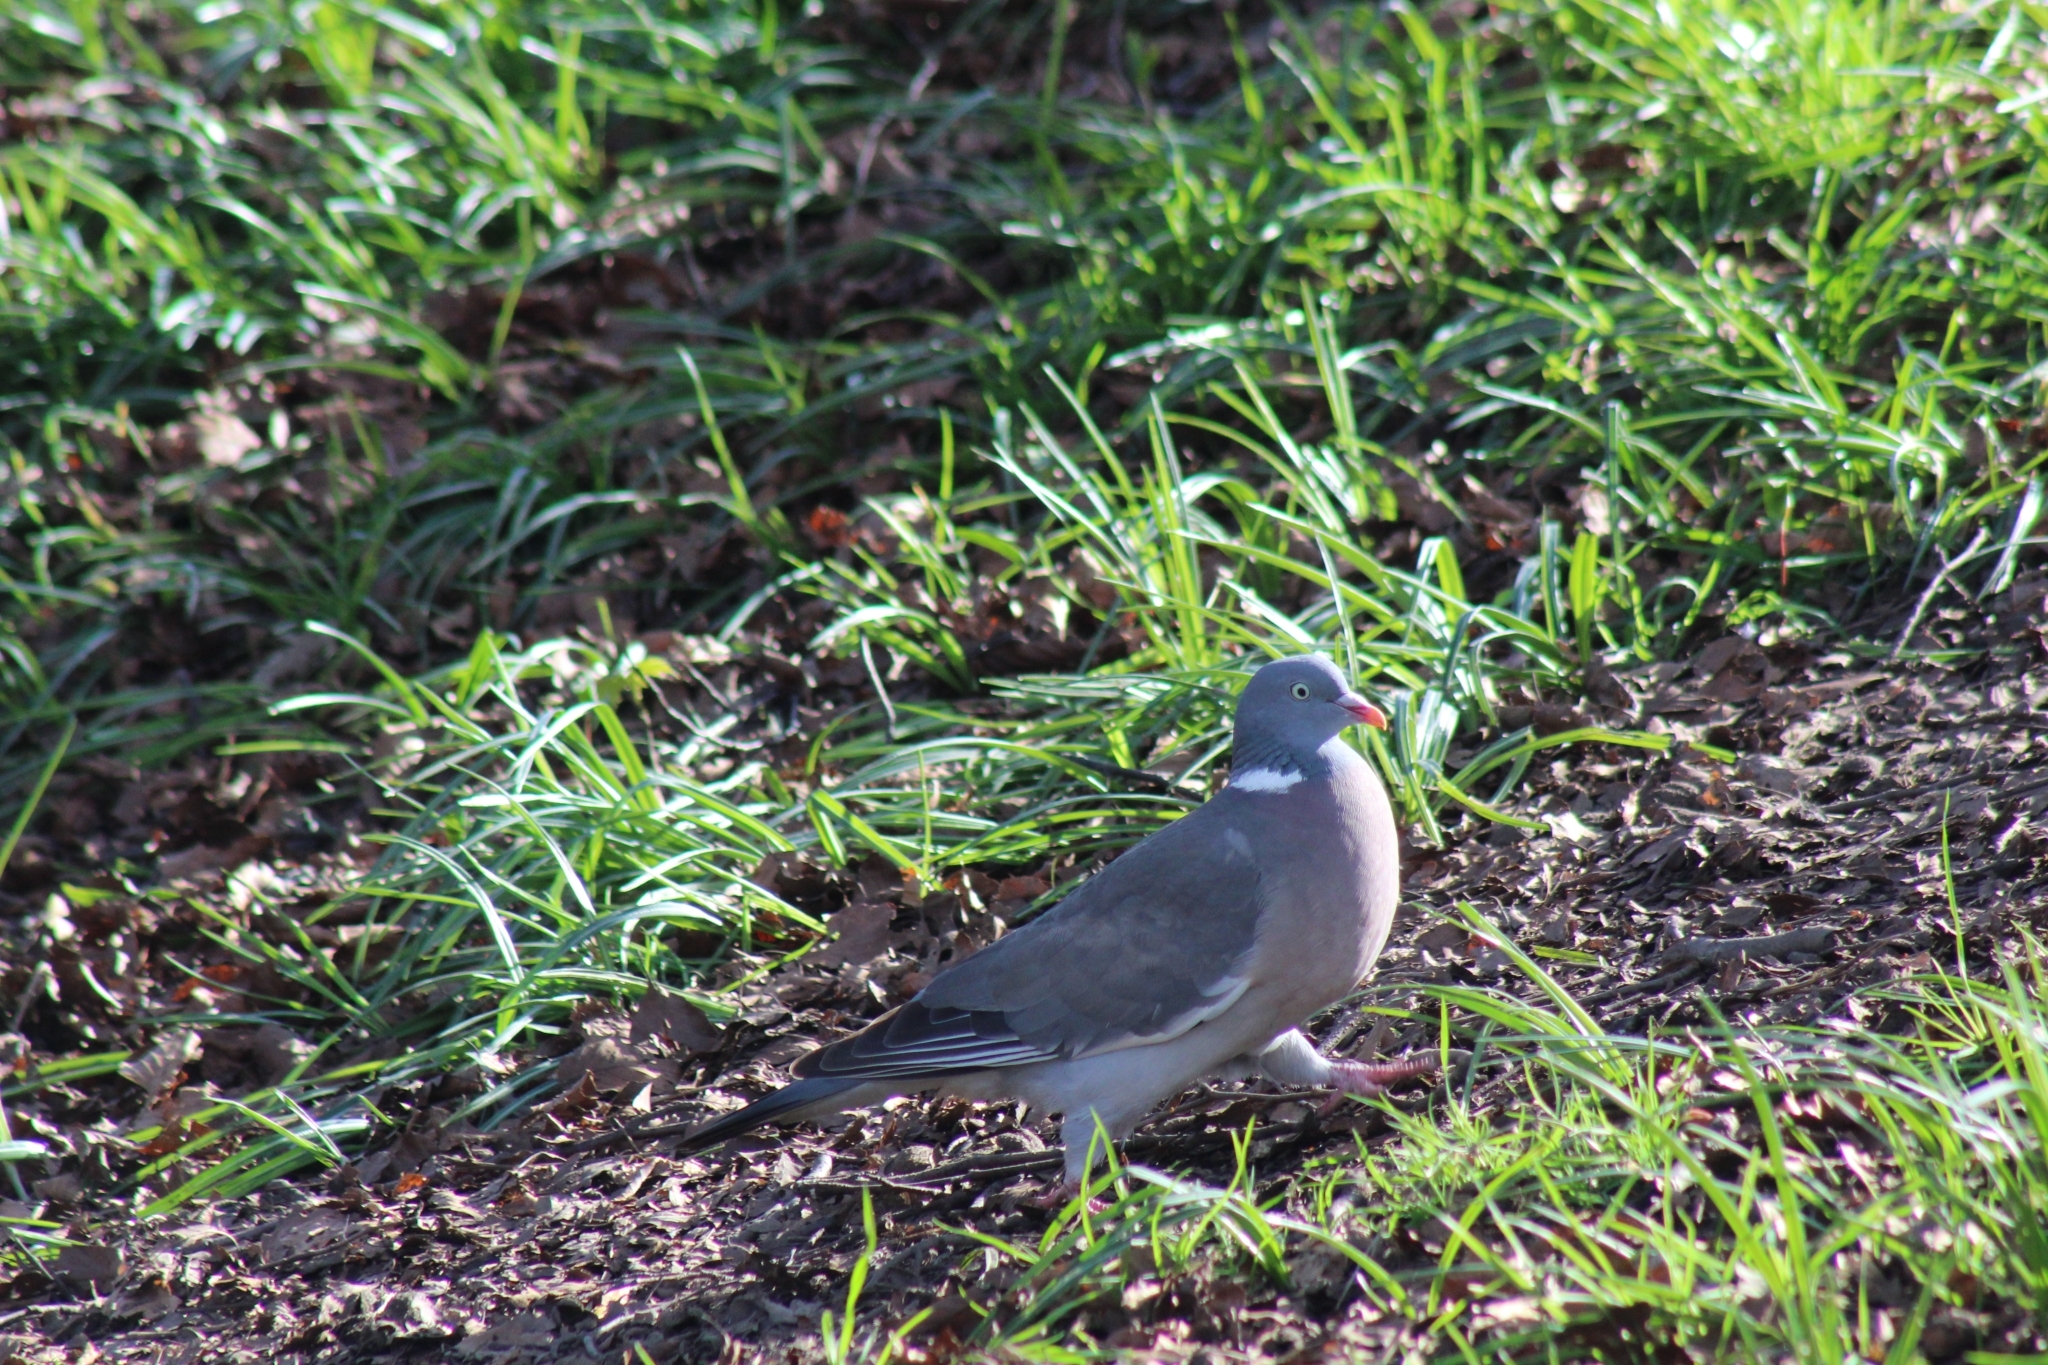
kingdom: Animalia
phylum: Chordata
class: Aves
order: Columbiformes
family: Columbidae
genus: Columba
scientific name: Columba palumbus
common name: Common wood pigeon
